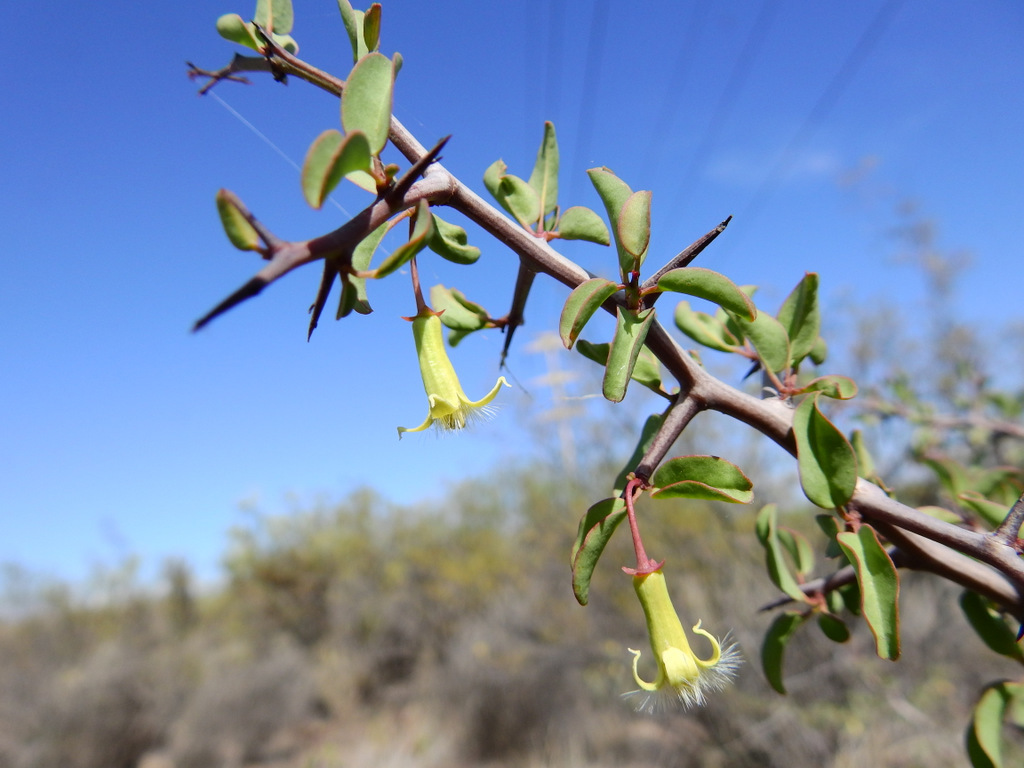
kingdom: Plantae
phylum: Tracheophyta
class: Magnoliopsida
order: Santalales
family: Ximeniaceae
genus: Ximenia
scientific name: Ximenia americana
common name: Tallowwood
